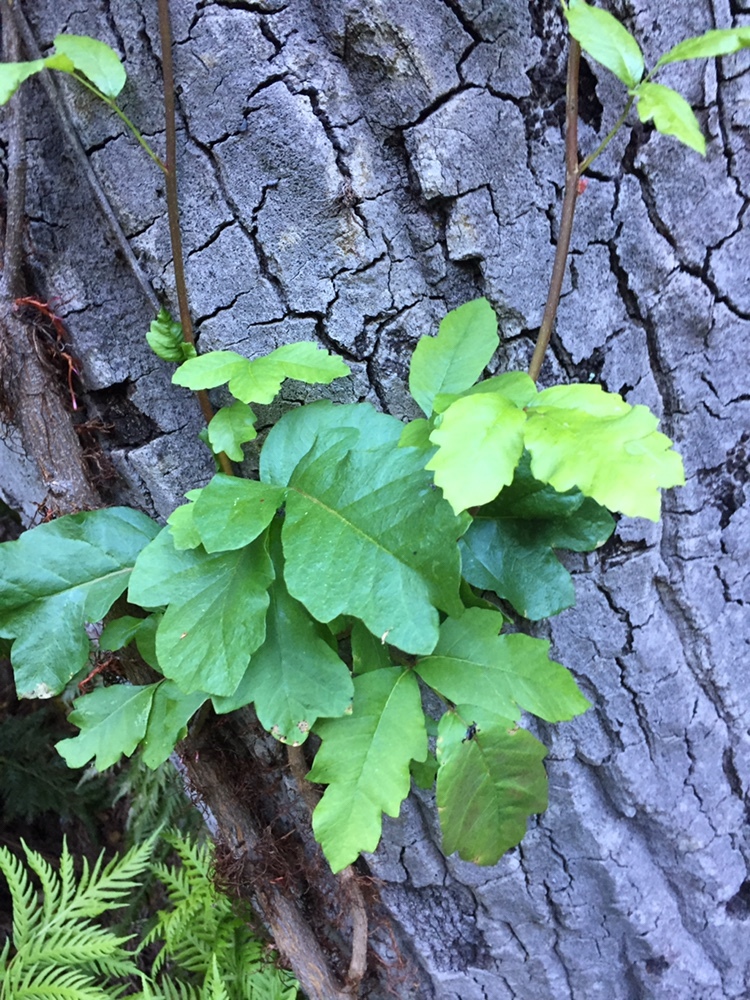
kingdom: Plantae
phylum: Tracheophyta
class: Magnoliopsida
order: Sapindales
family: Anacardiaceae
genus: Toxicodendron
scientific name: Toxicodendron diversilobum
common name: Pacific poison-oak
